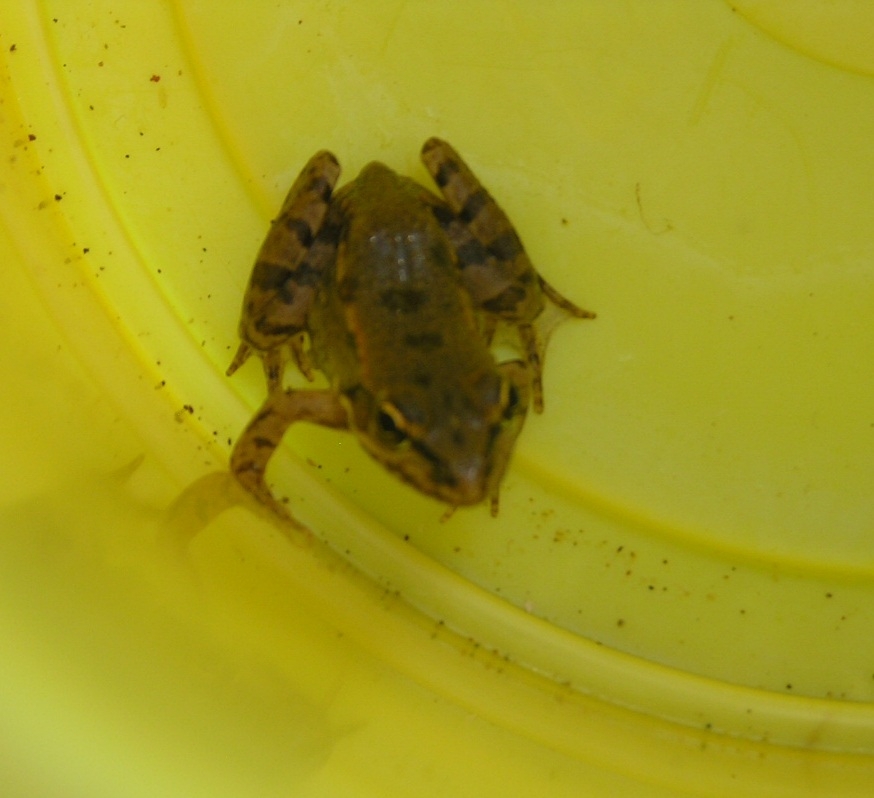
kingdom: Animalia
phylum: Chordata
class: Amphibia
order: Anura
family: Ranidae
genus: Pelophylax
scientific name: Pelophylax ridibundus
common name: Marsh frog
